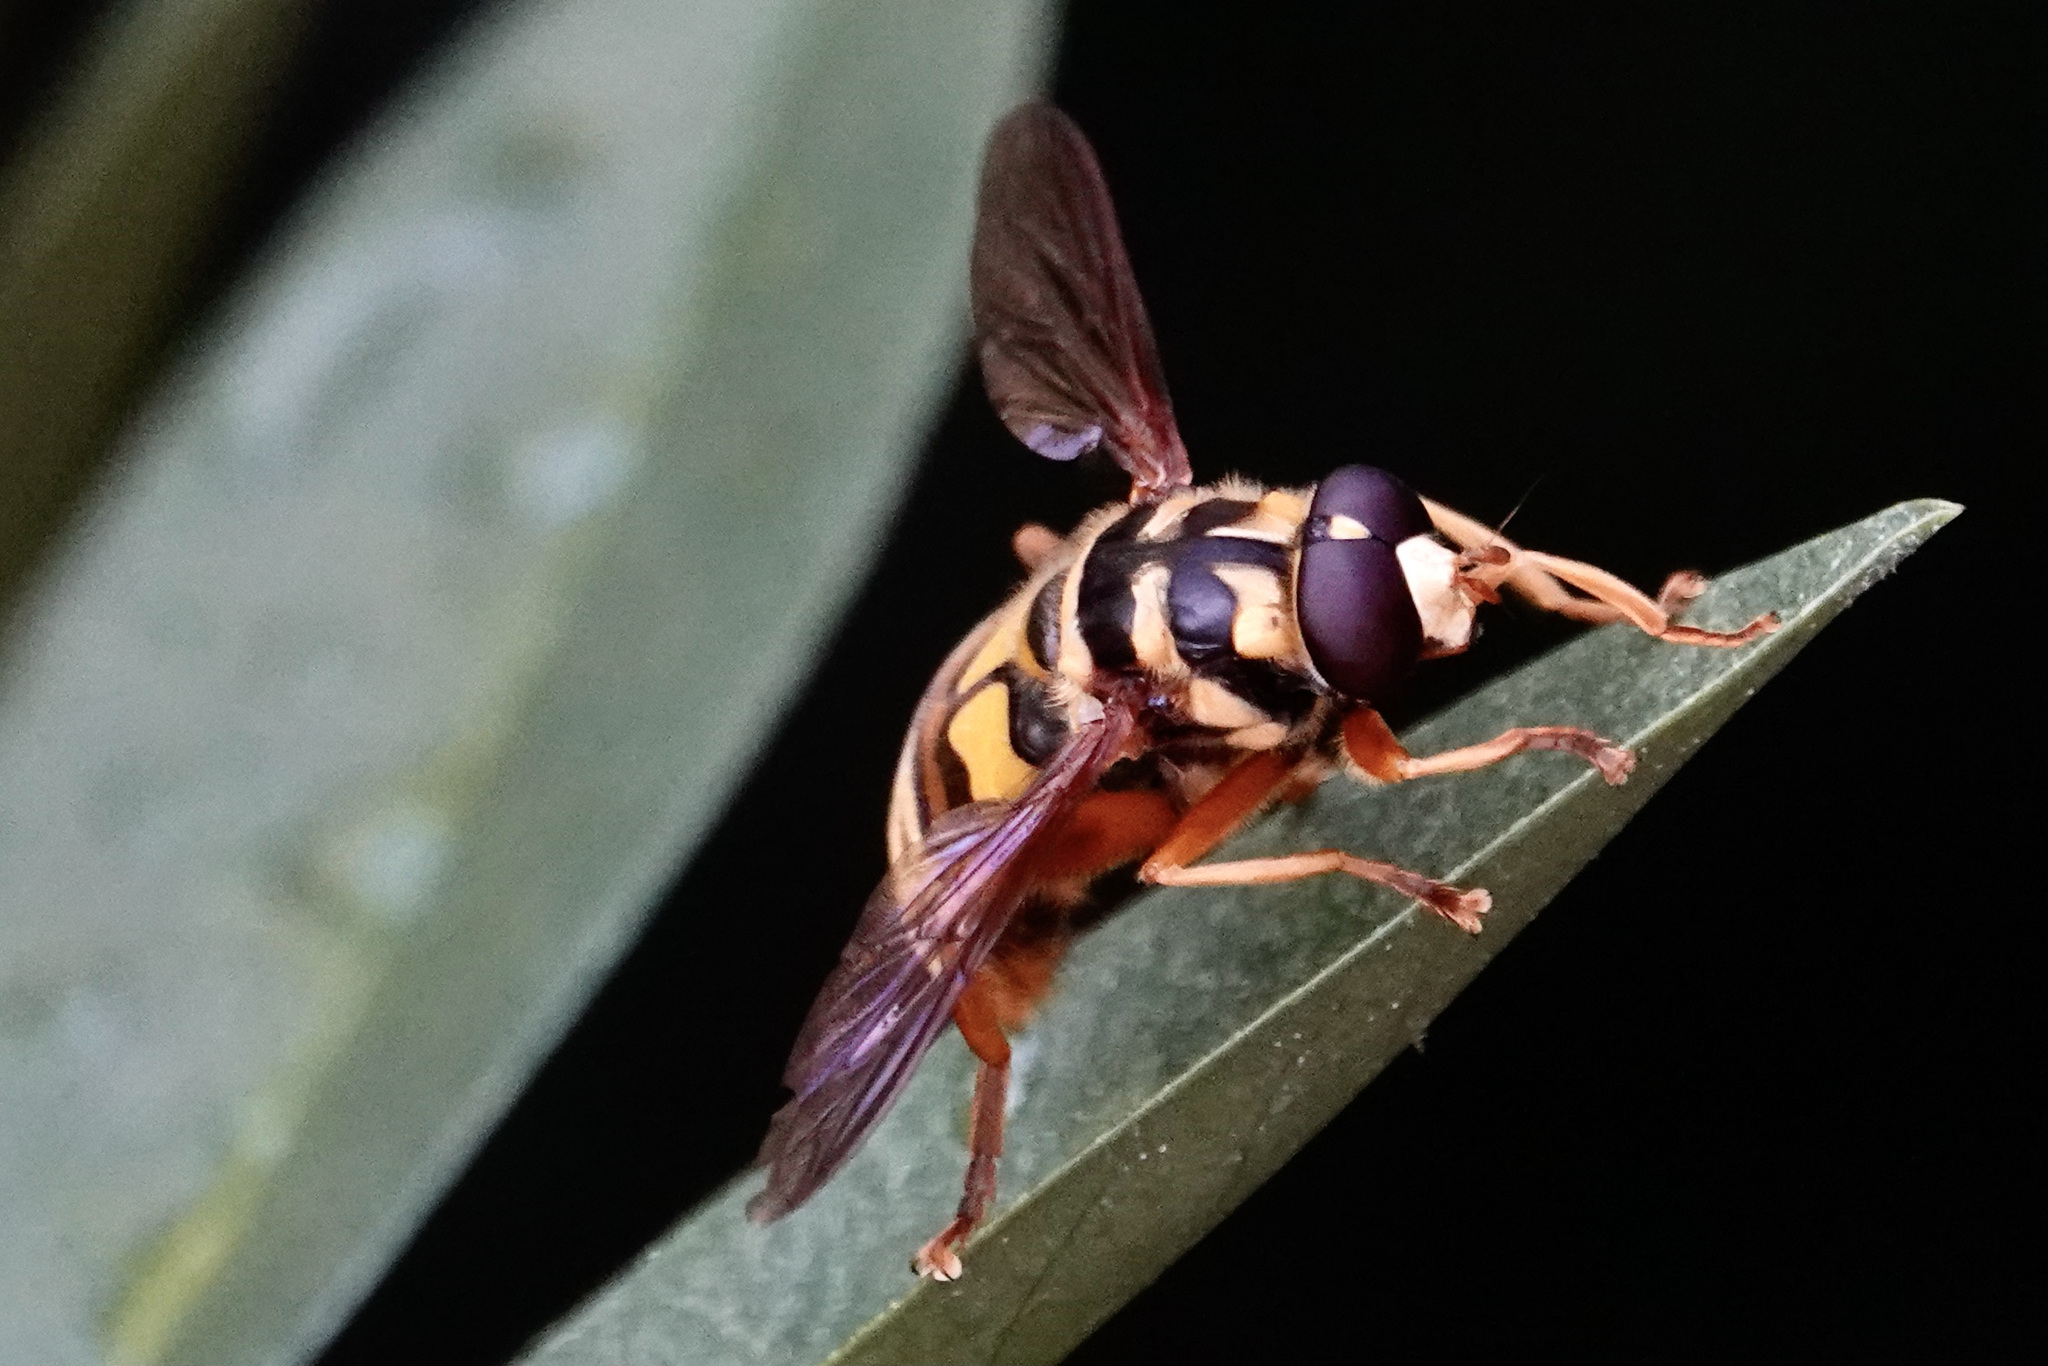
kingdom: Animalia
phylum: Arthropoda
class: Insecta
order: Diptera
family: Syrphidae
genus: Milesia
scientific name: Milesia virginiensis
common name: Virginia giant
